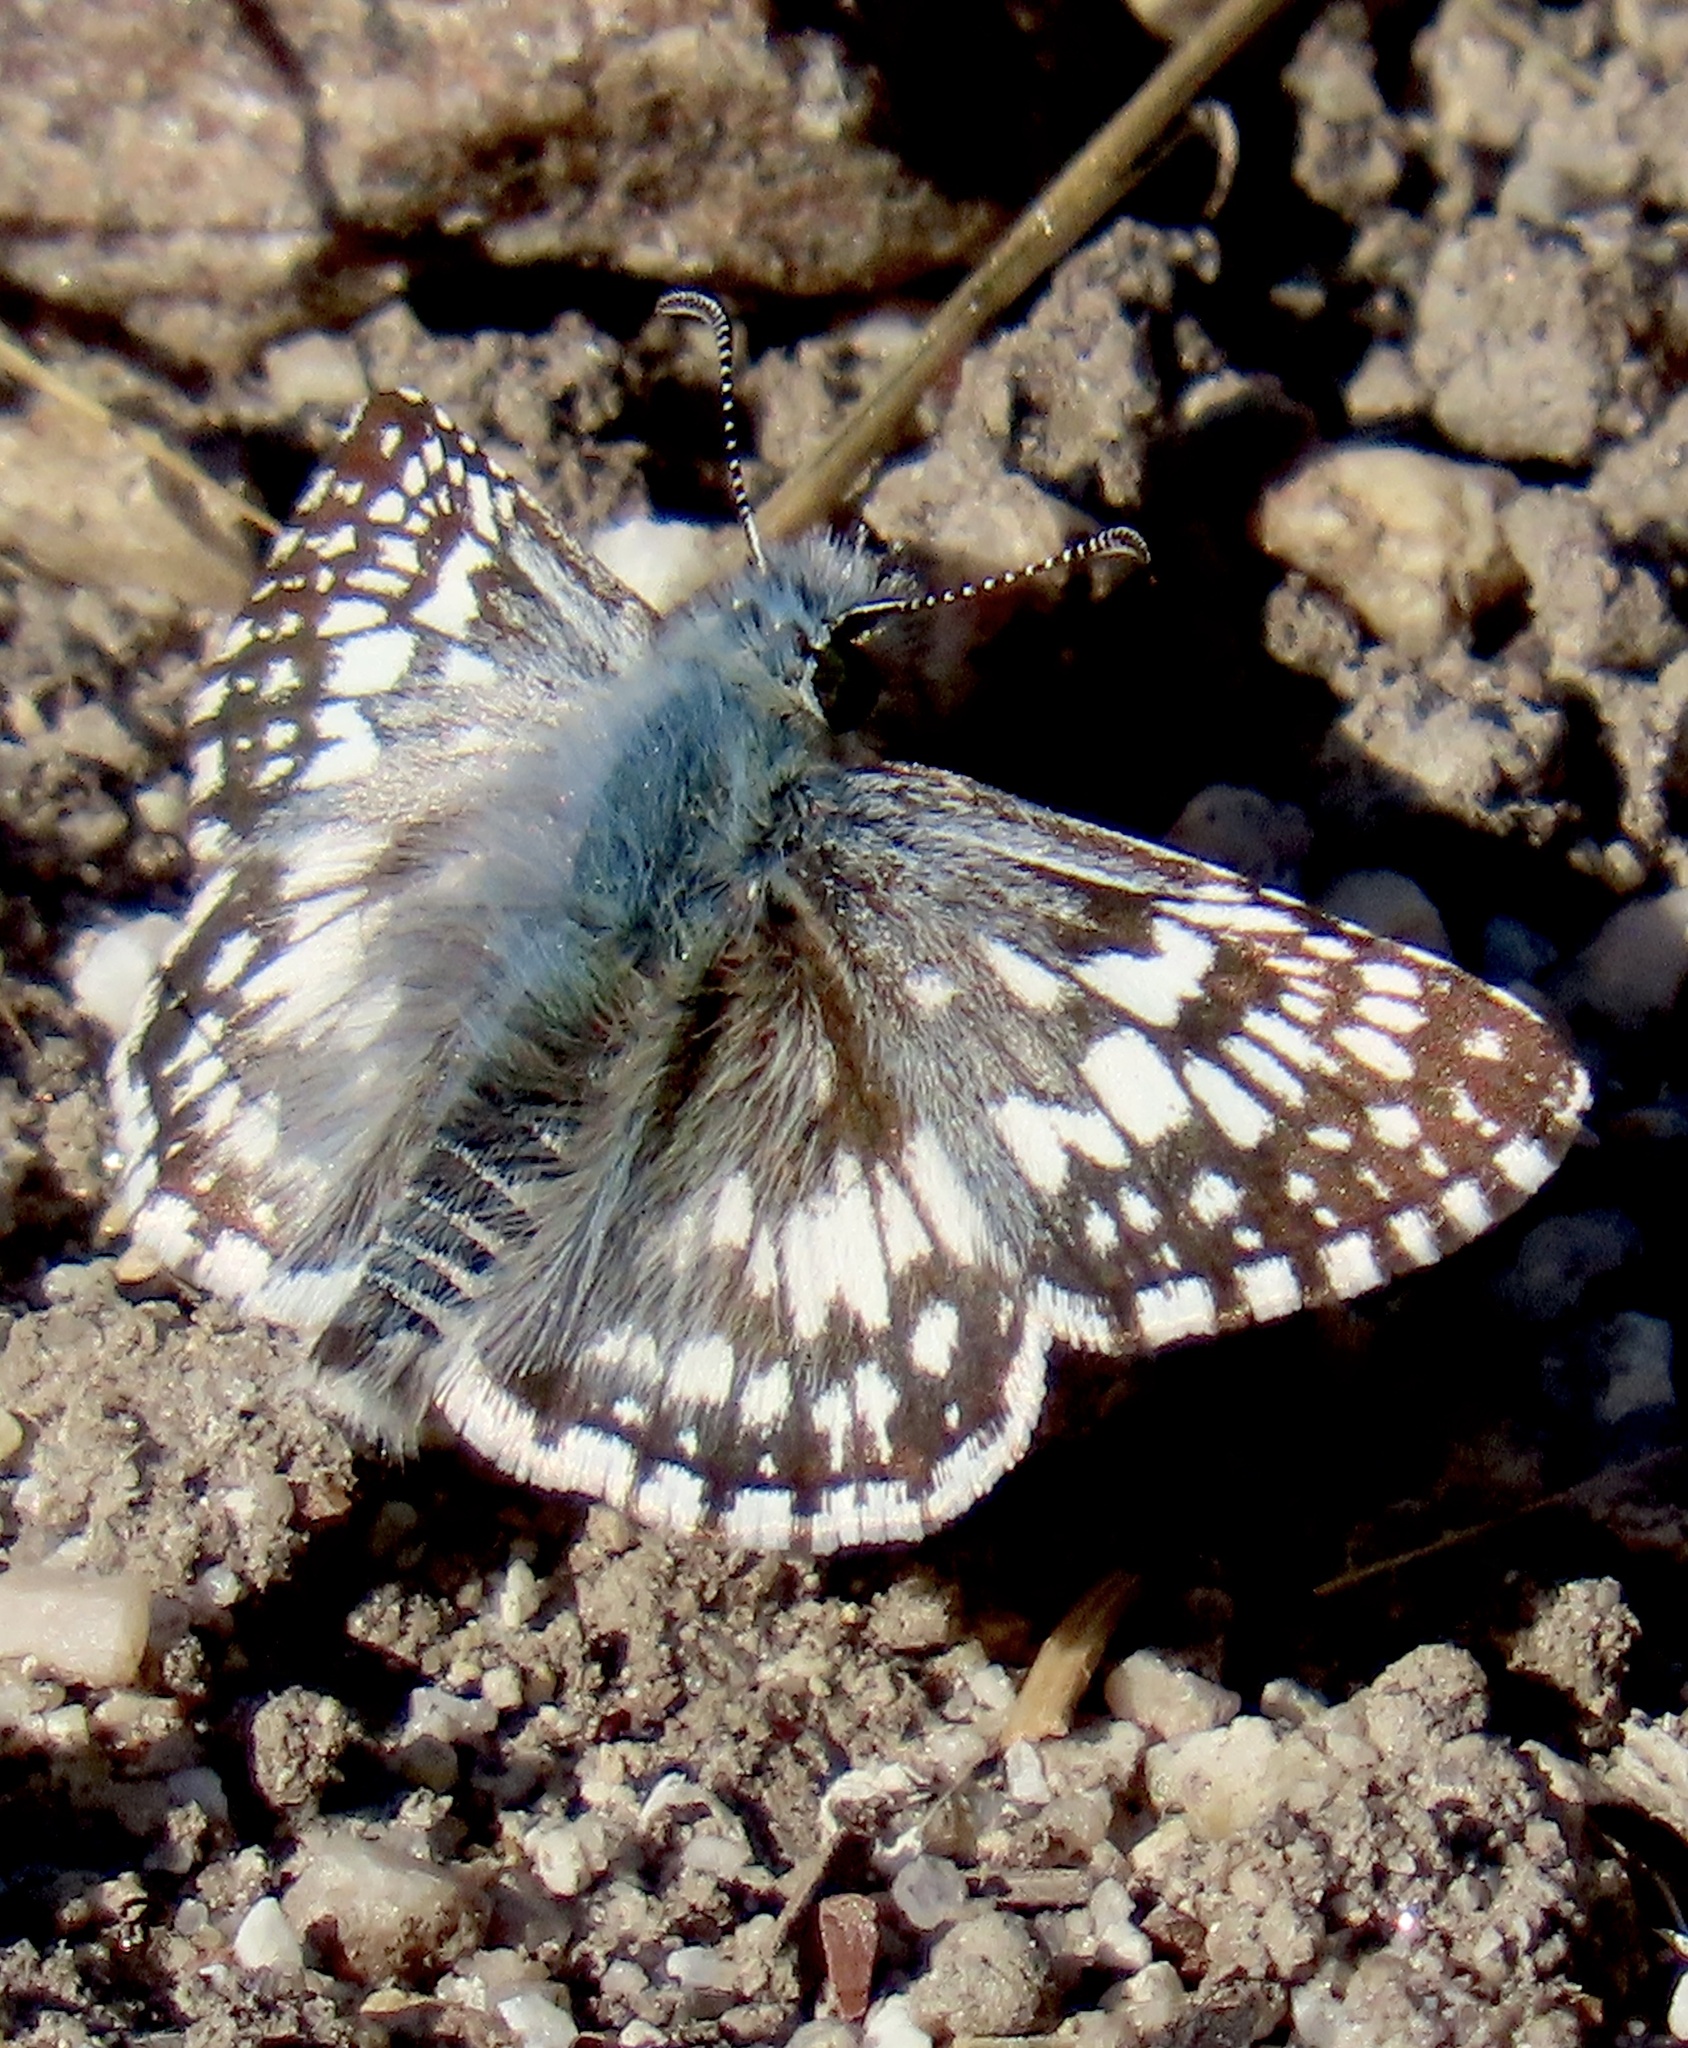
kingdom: Animalia
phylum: Arthropoda
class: Insecta
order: Lepidoptera
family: Hesperiidae
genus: Burnsius
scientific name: Burnsius communis
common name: Common checkered-skipper
